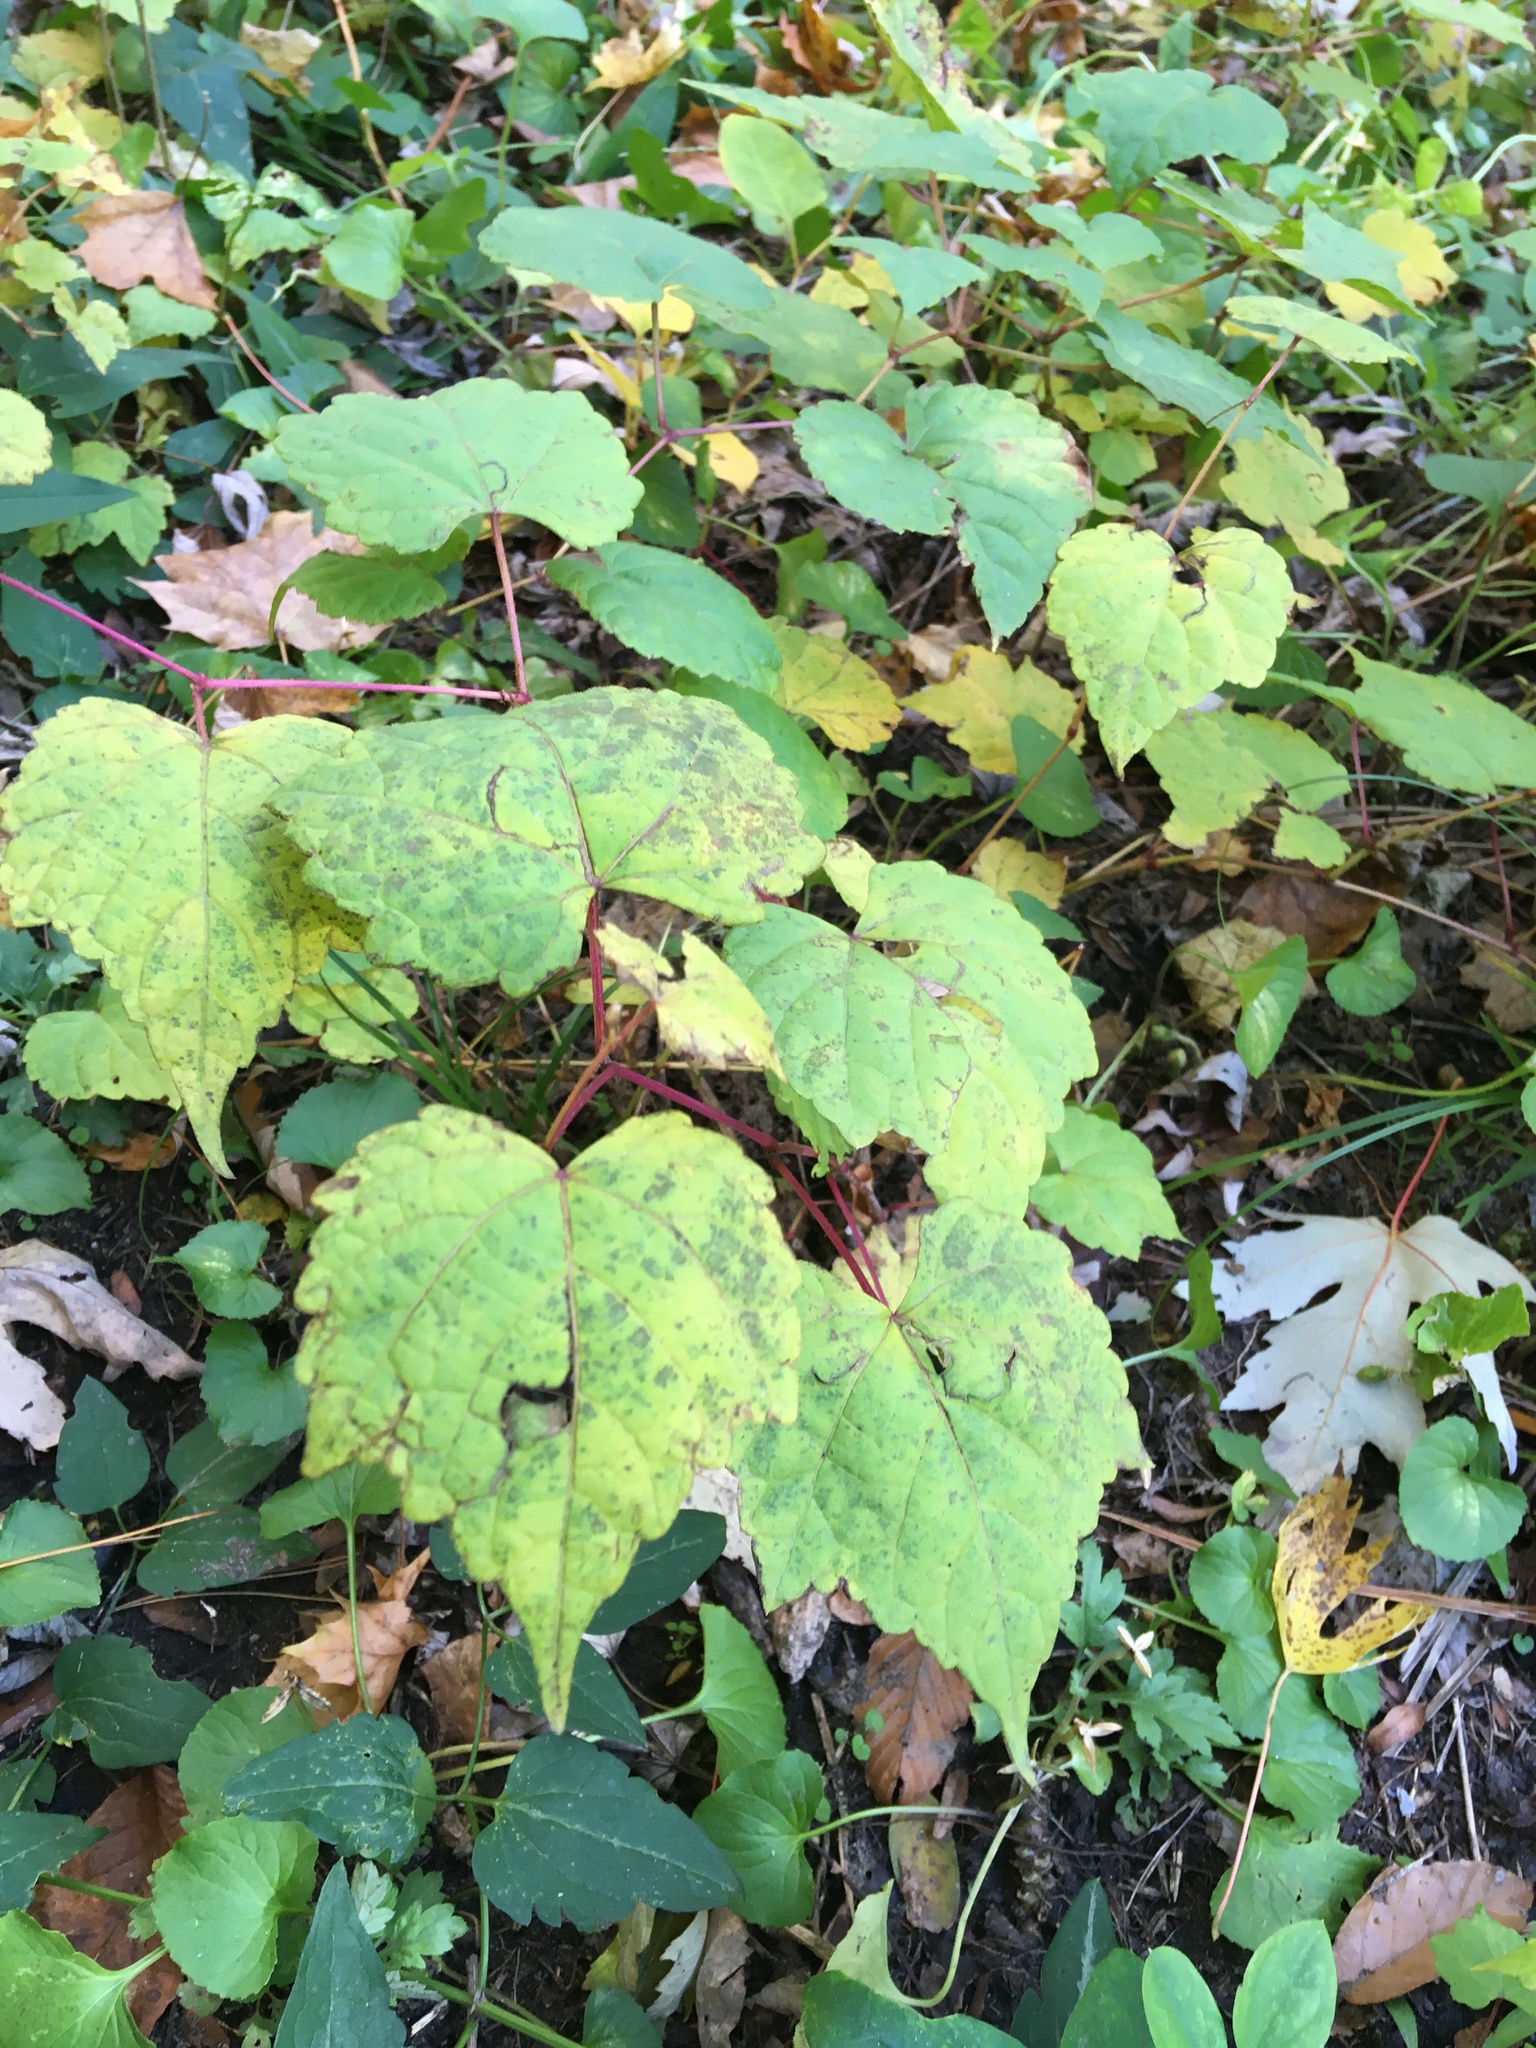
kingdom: Plantae
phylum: Tracheophyta
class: Magnoliopsida
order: Vitales
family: Vitaceae
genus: Ampelopsis
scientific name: Ampelopsis glandulosa
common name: Amur peppervine
